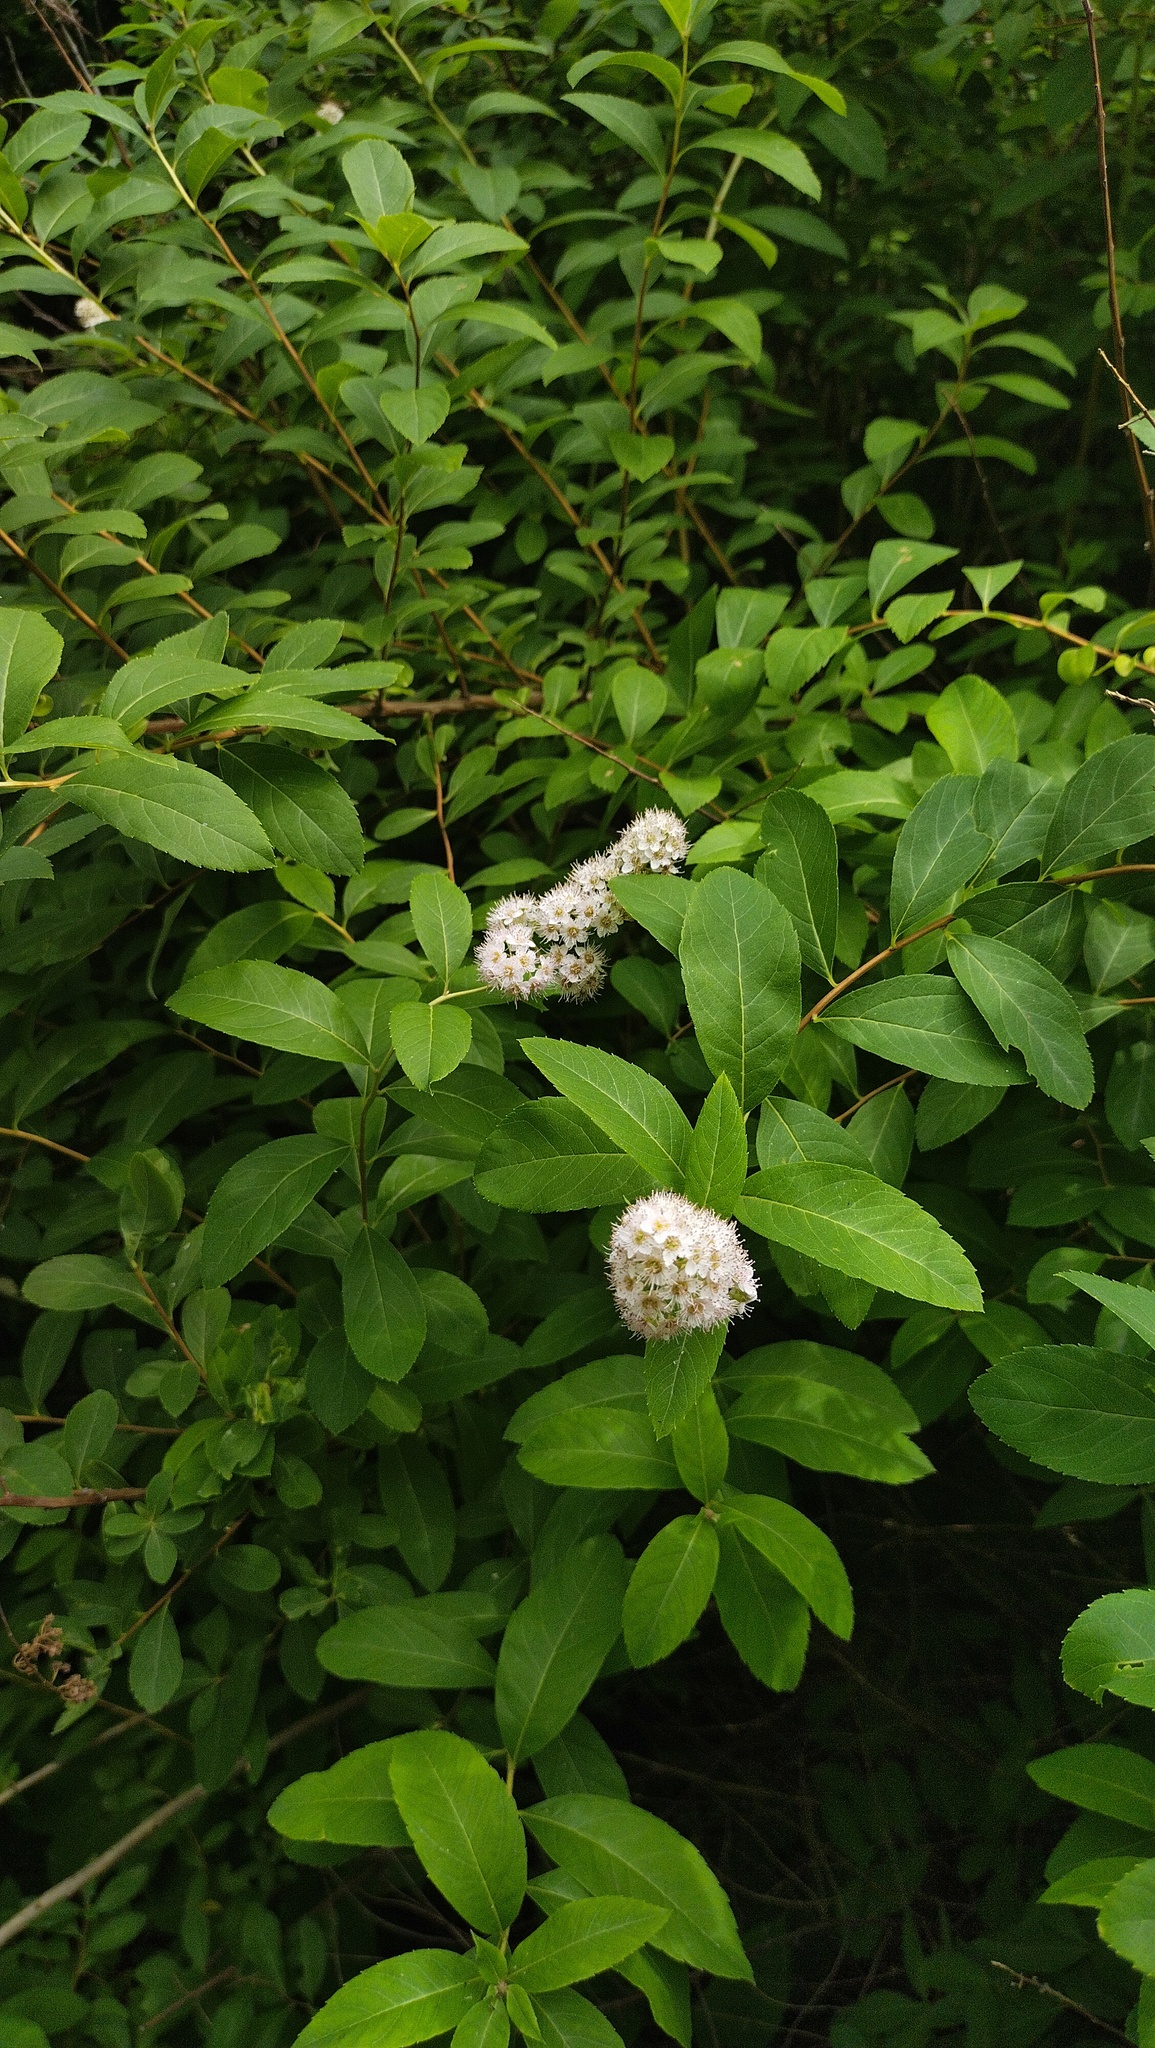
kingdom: Plantae
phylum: Tracheophyta
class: Magnoliopsida
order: Rosales
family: Rosaceae
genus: Spiraea
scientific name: Spiraea alba
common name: Pale bridewort
